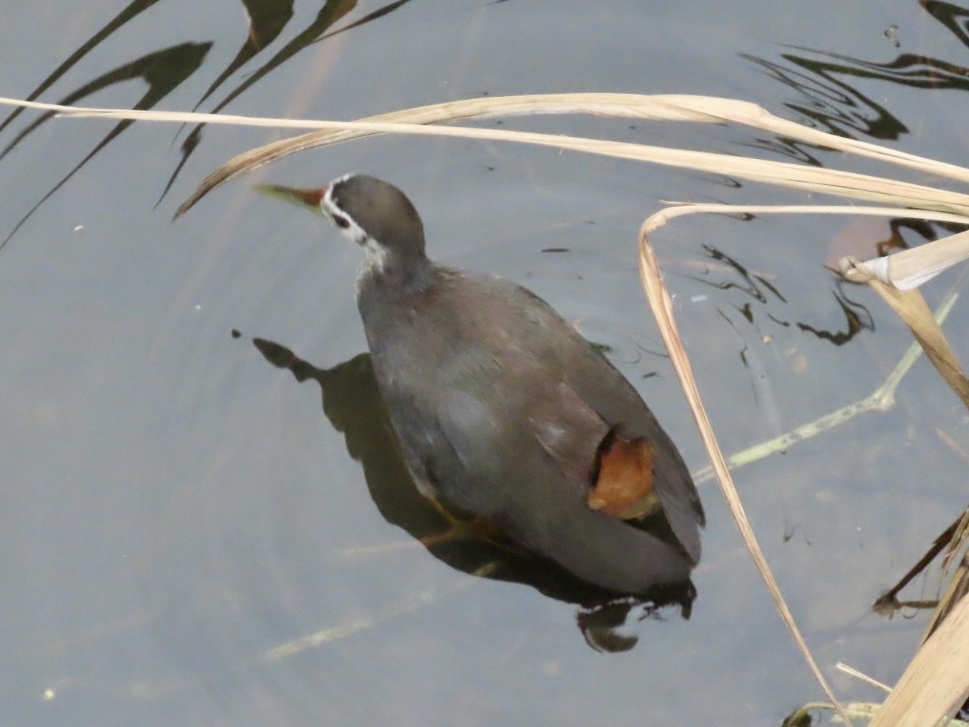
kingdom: Animalia
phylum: Chordata
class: Aves
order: Gruiformes
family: Rallidae
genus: Amaurornis
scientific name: Amaurornis phoenicurus
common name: White-breasted waterhen
